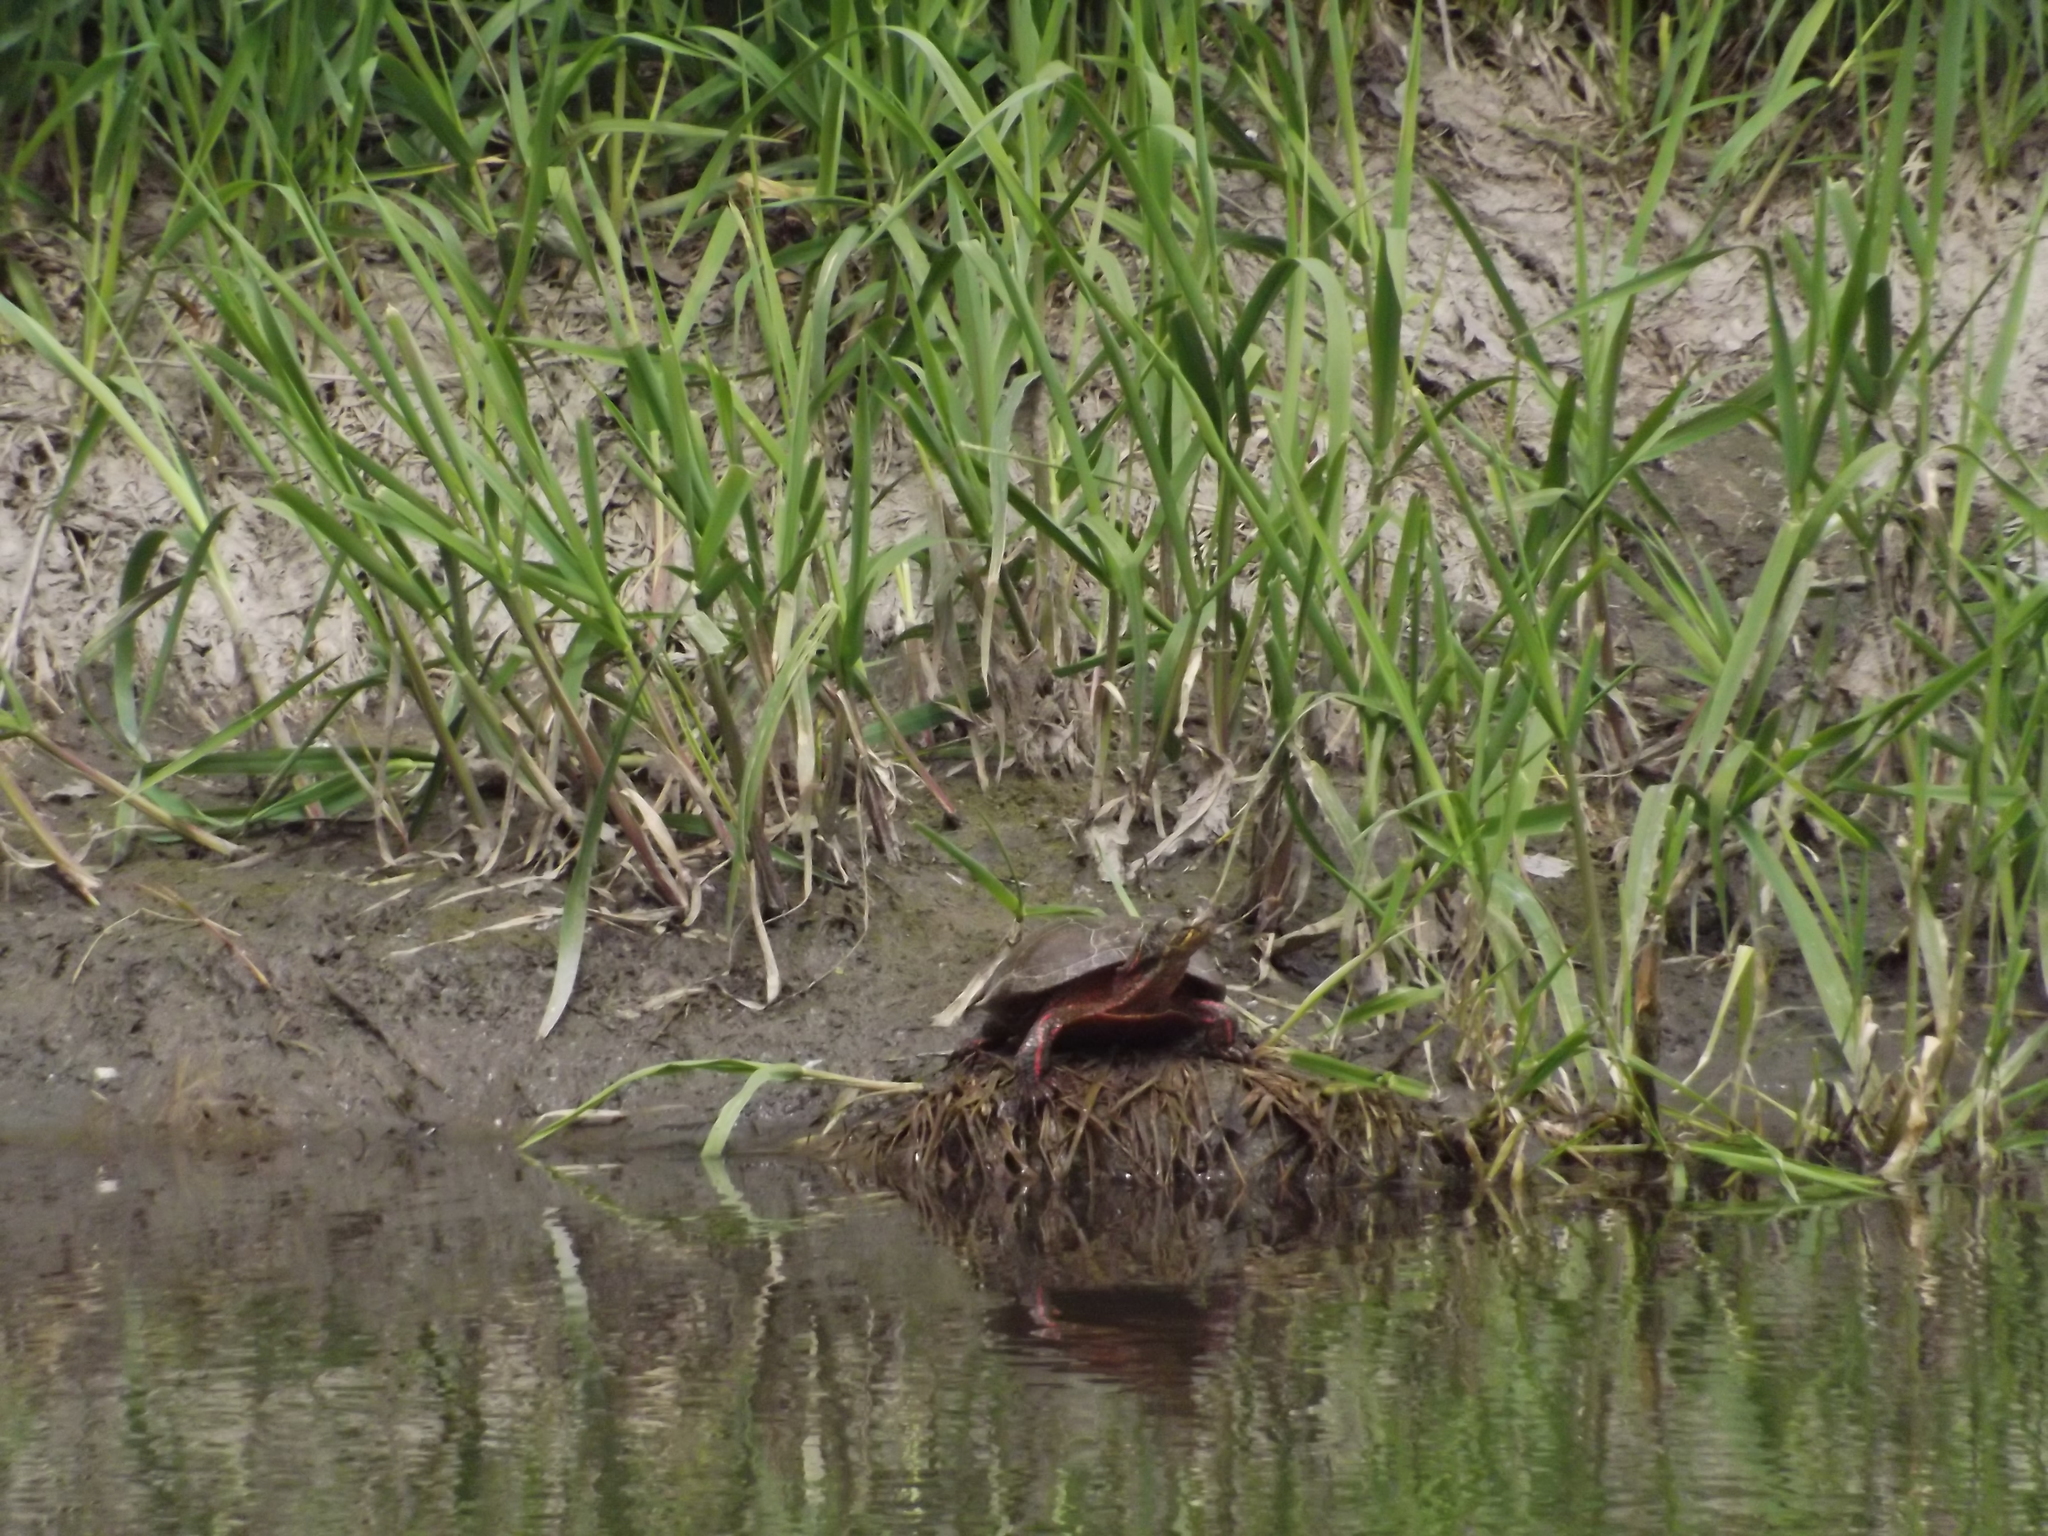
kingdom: Animalia
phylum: Chordata
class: Testudines
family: Emydidae
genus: Chrysemys
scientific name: Chrysemys picta
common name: Painted turtle
